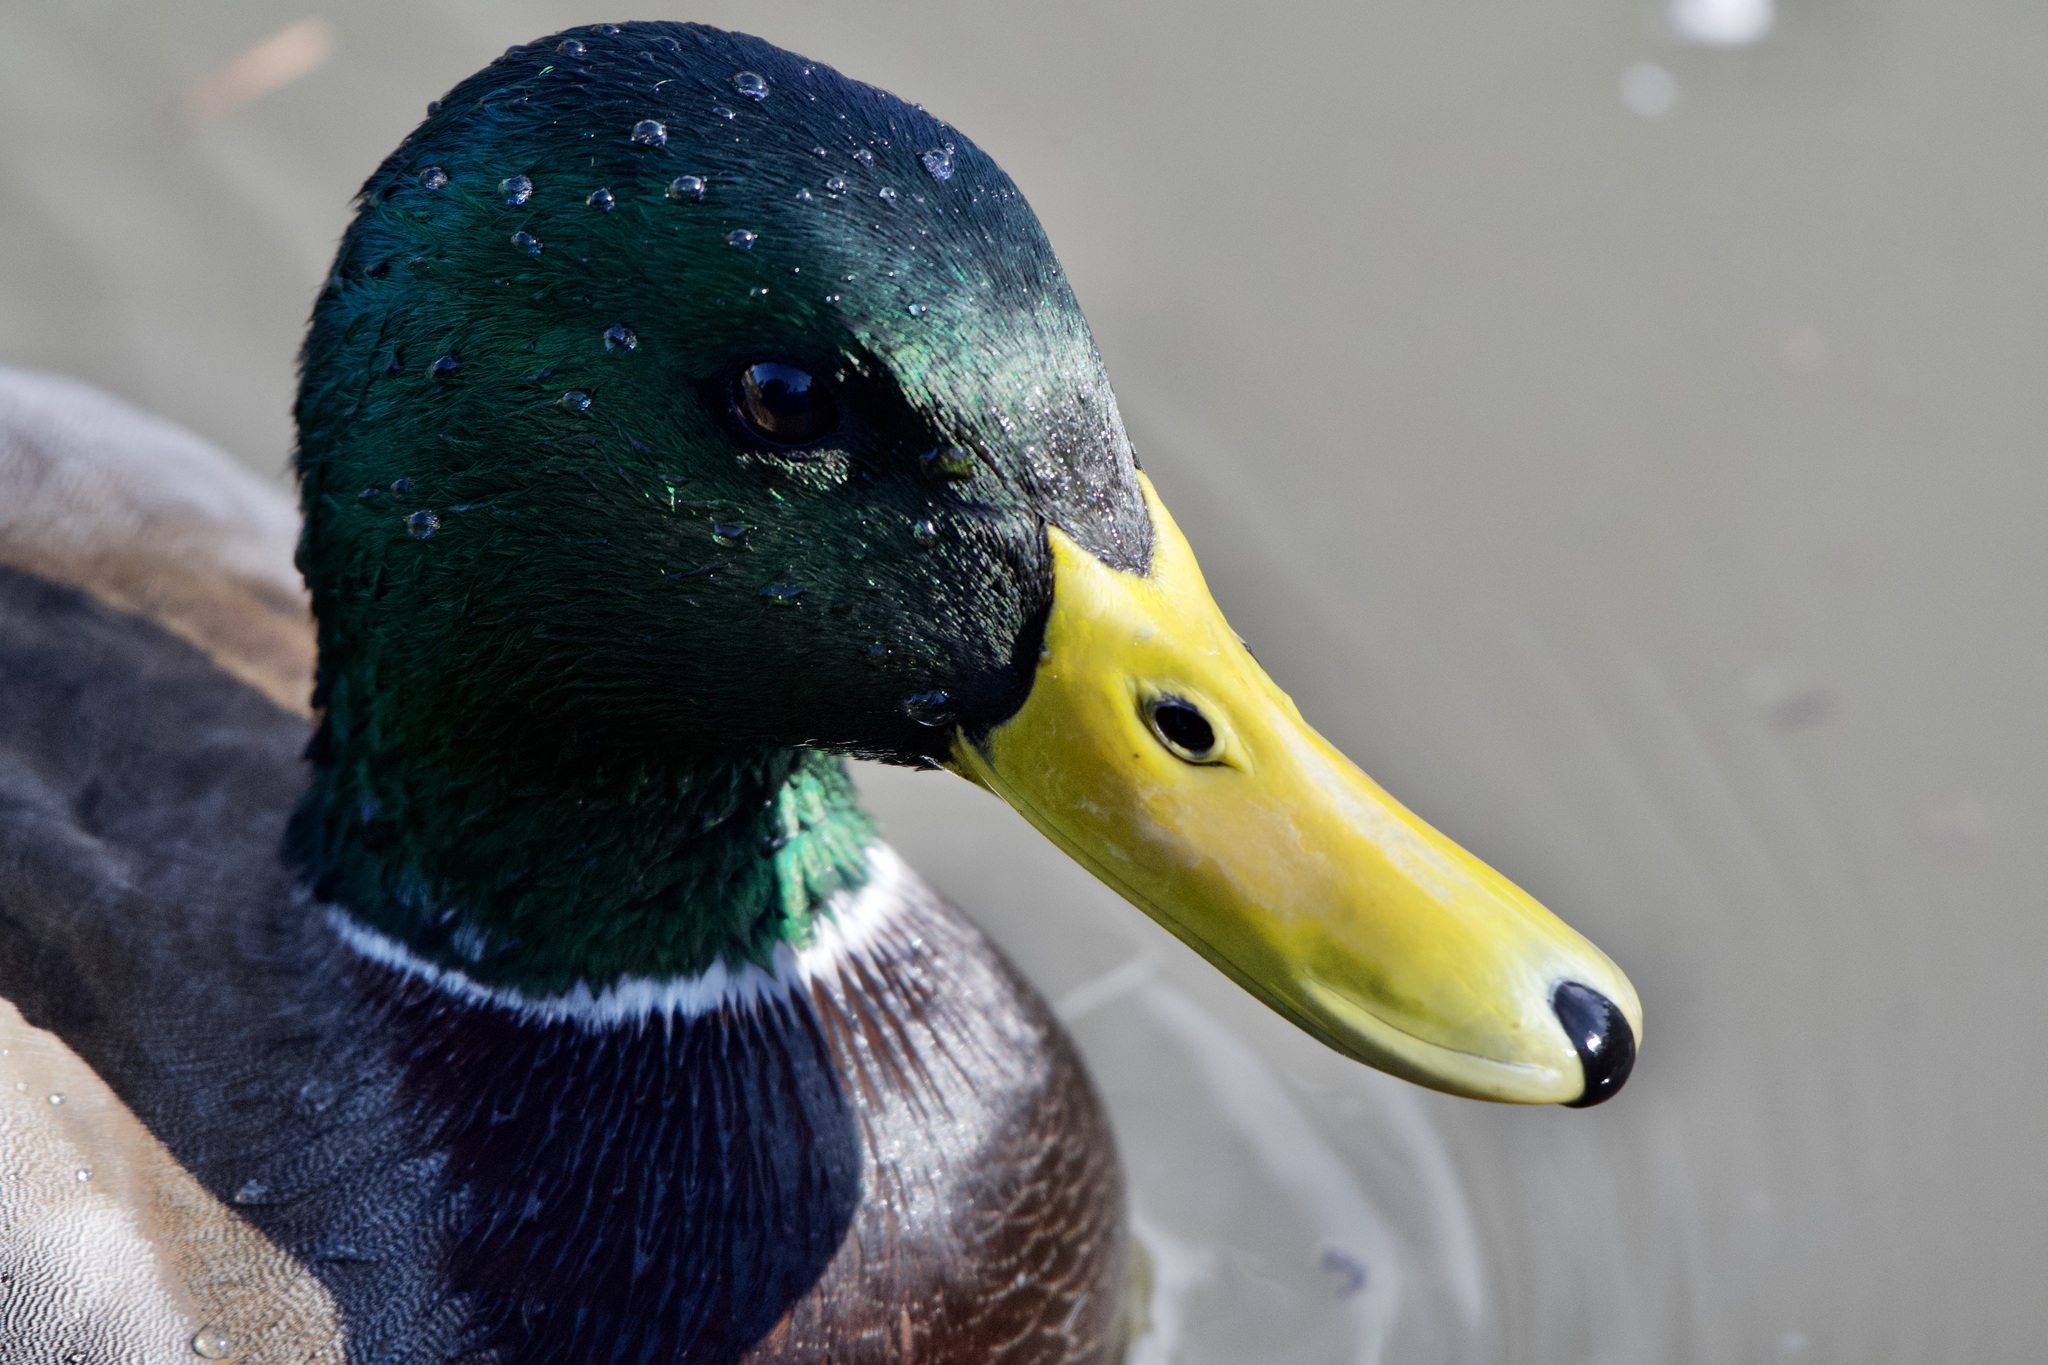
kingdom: Animalia
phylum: Chordata
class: Aves
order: Anseriformes
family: Anatidae
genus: Anas
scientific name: Anas platyrhynchos
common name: Mallard
